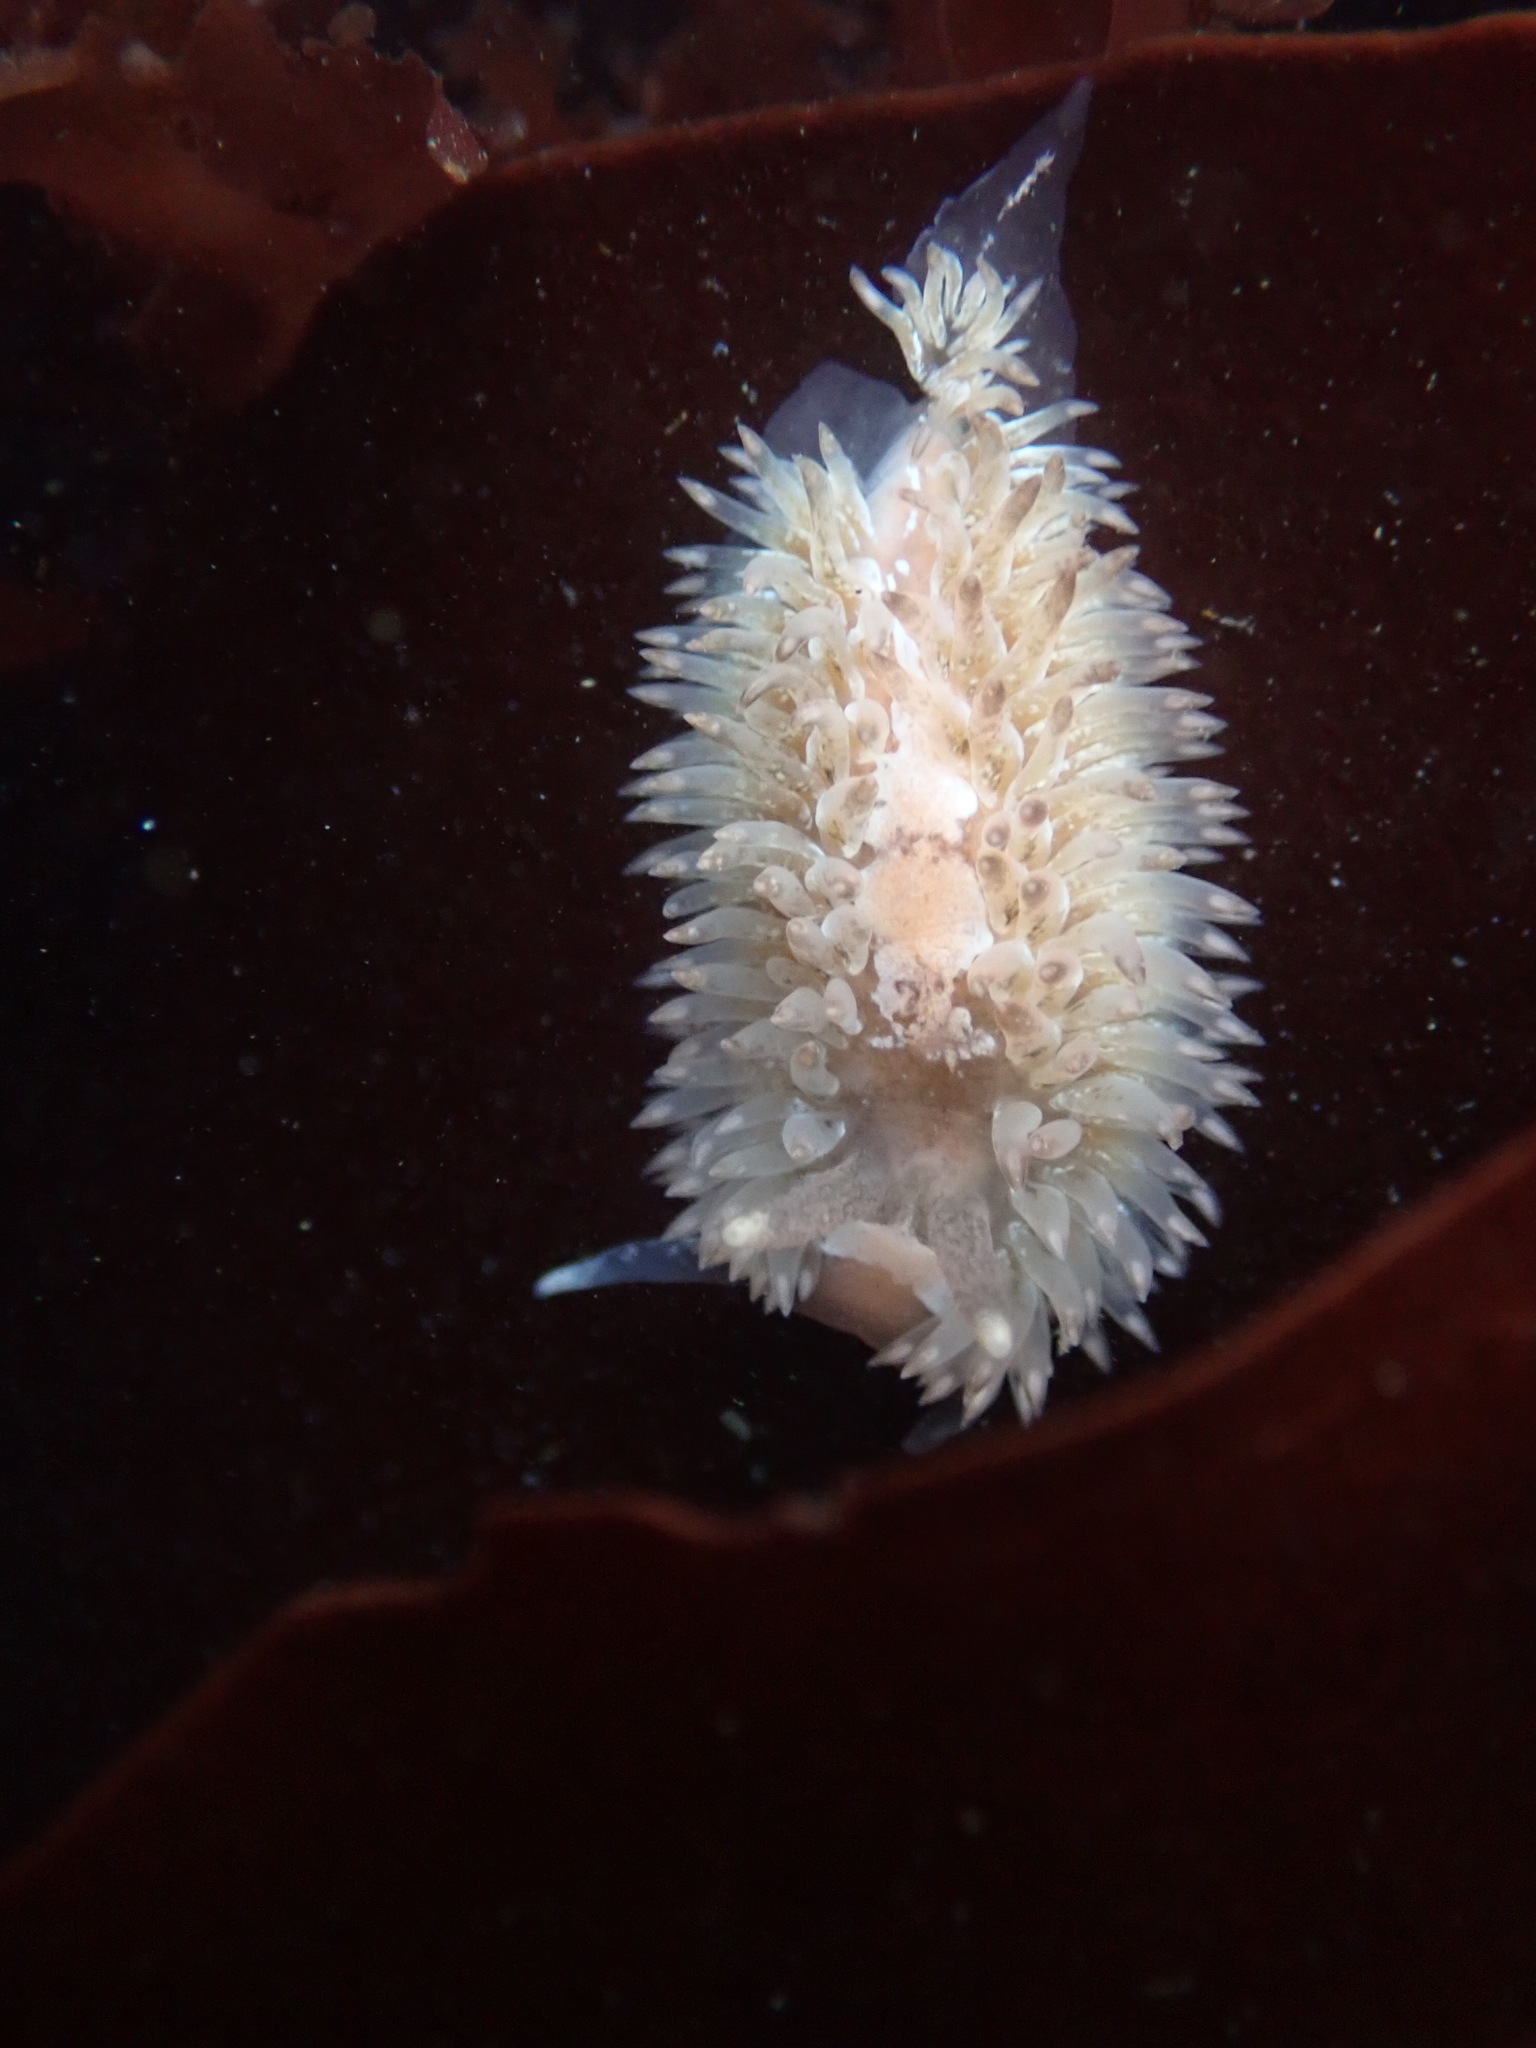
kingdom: Animalia
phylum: Mollusca
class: Gastropoda
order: Nudibranchia
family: Aeolidiidae
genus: Aeolidia
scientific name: Aeolidia loui
